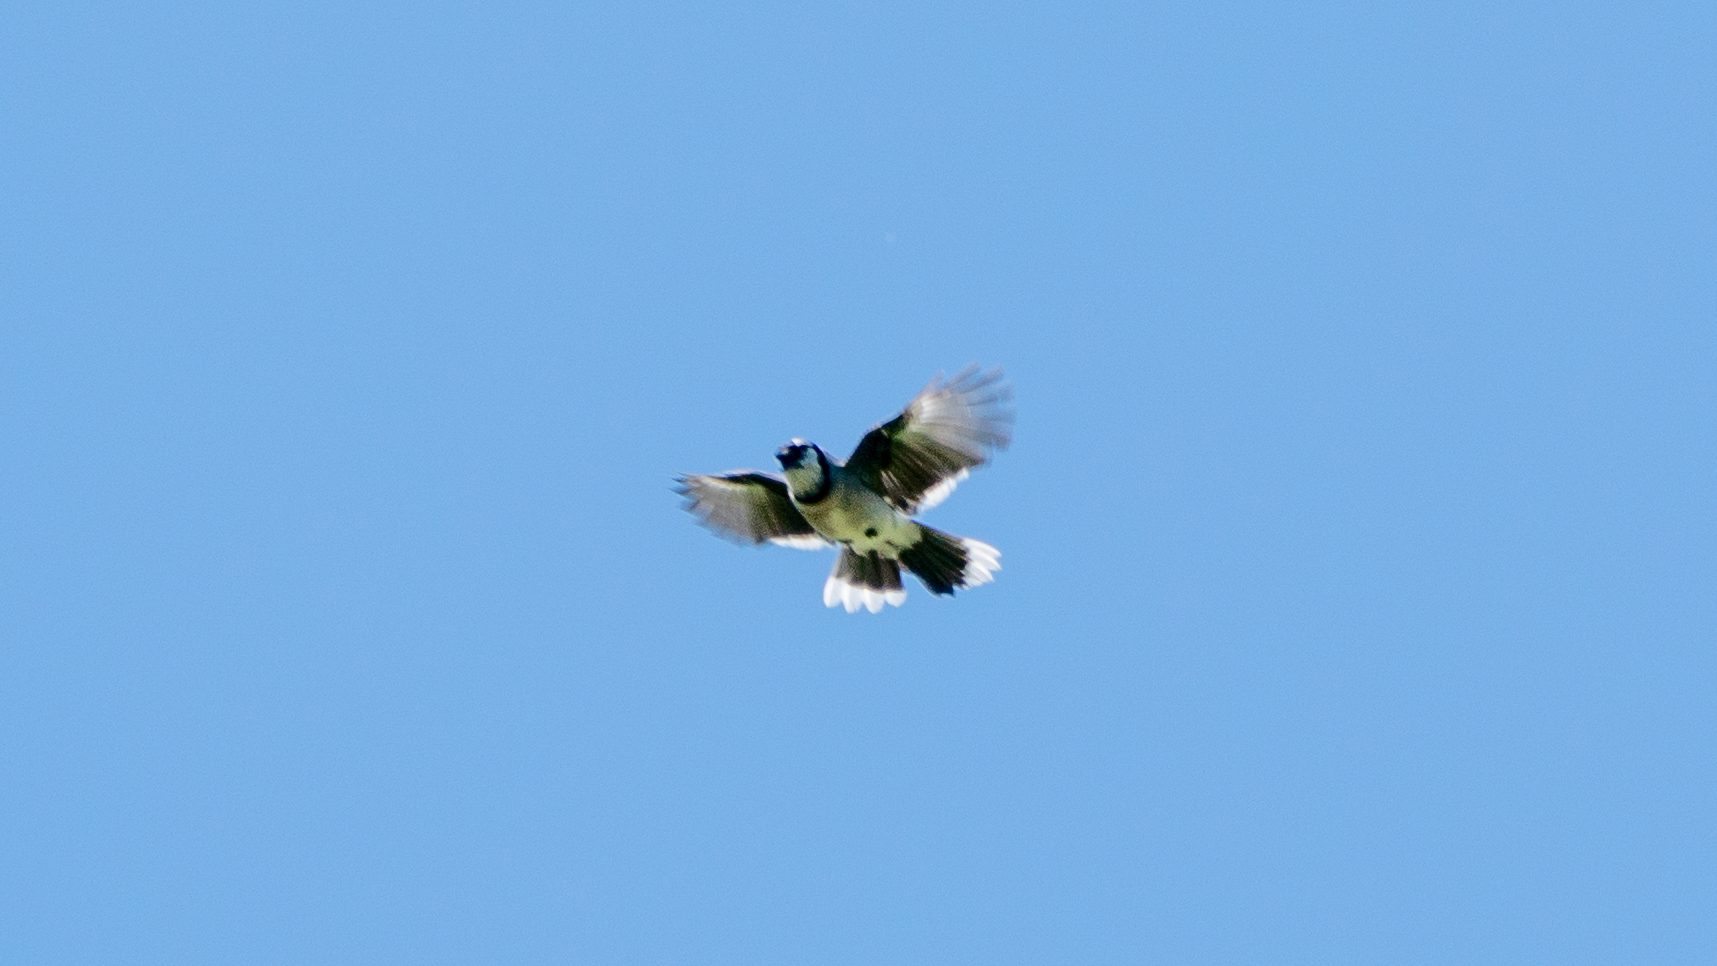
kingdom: Animalia
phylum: Chordata
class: Aves
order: Passeriformes
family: Corvidae
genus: Cyanocitta
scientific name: Cyanocitta cristata
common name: Blue jay
